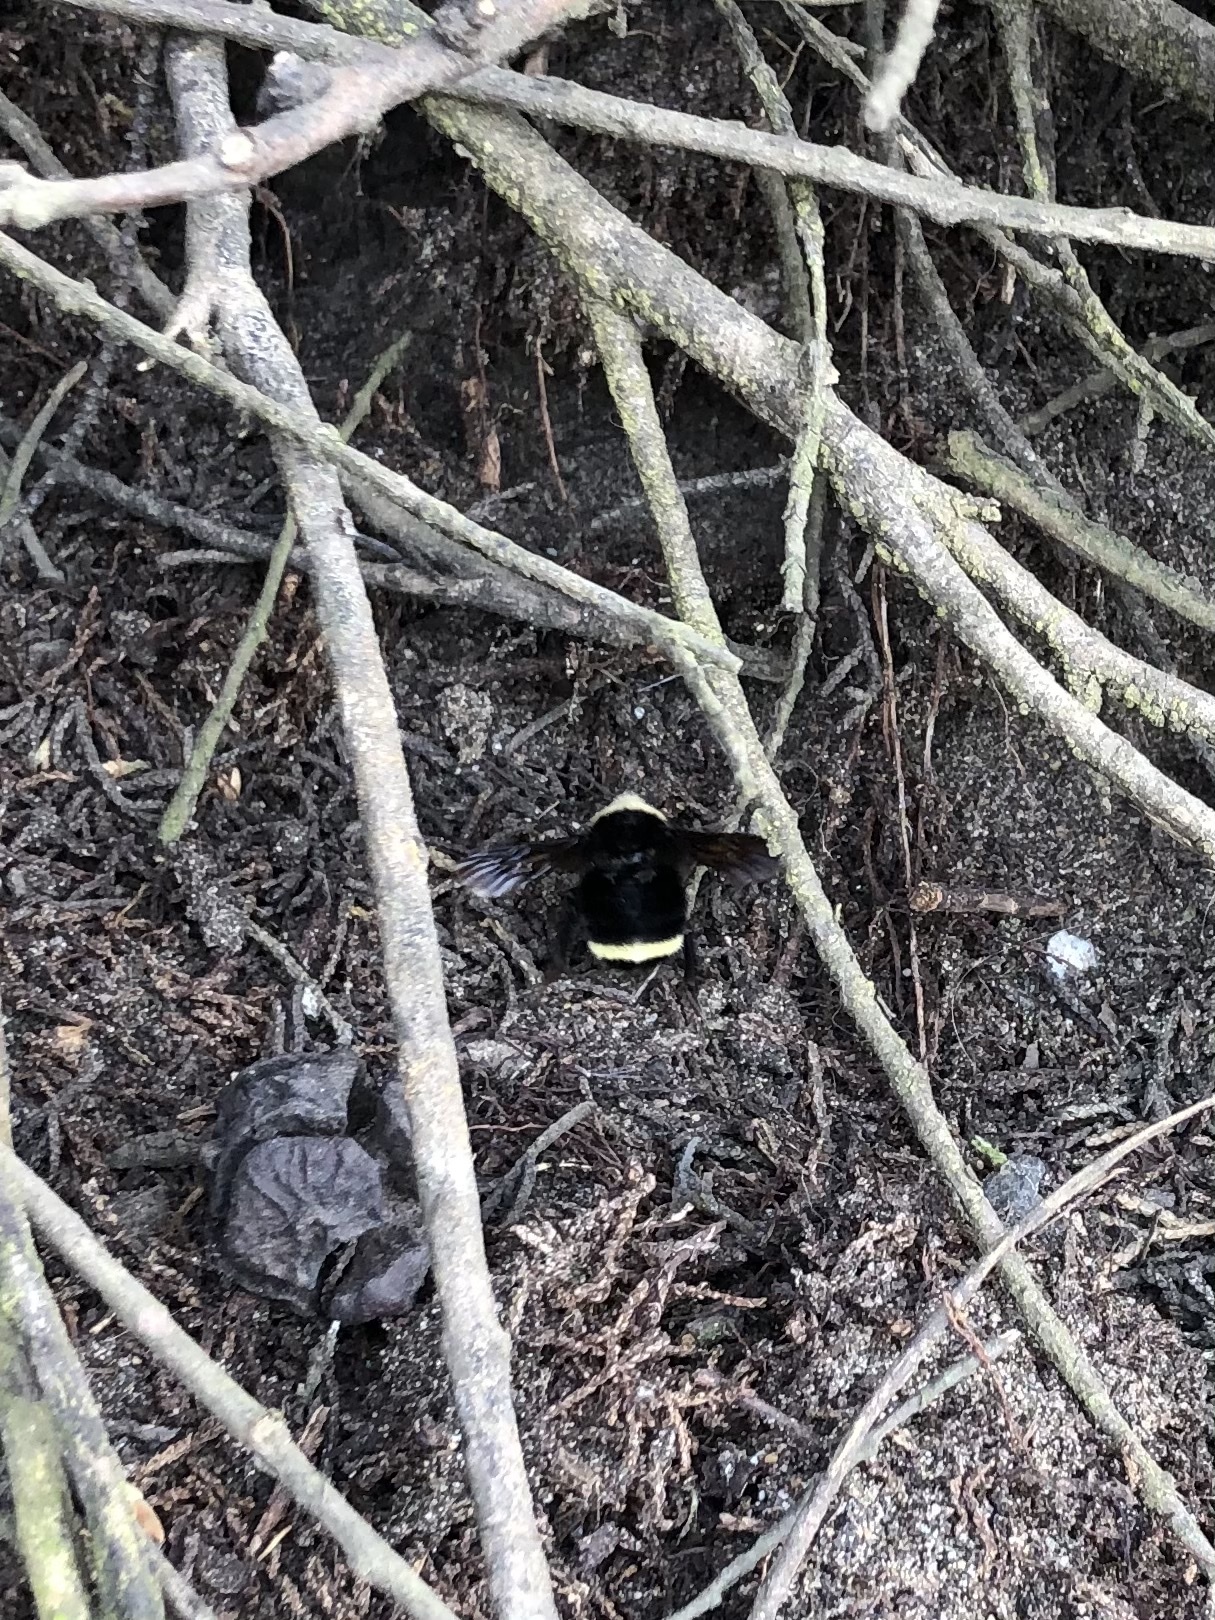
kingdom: Animalia
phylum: Arthropoda
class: Insecta
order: Hymenoptera
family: Apidae
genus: Pyrobombus
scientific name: Pyrobombus
